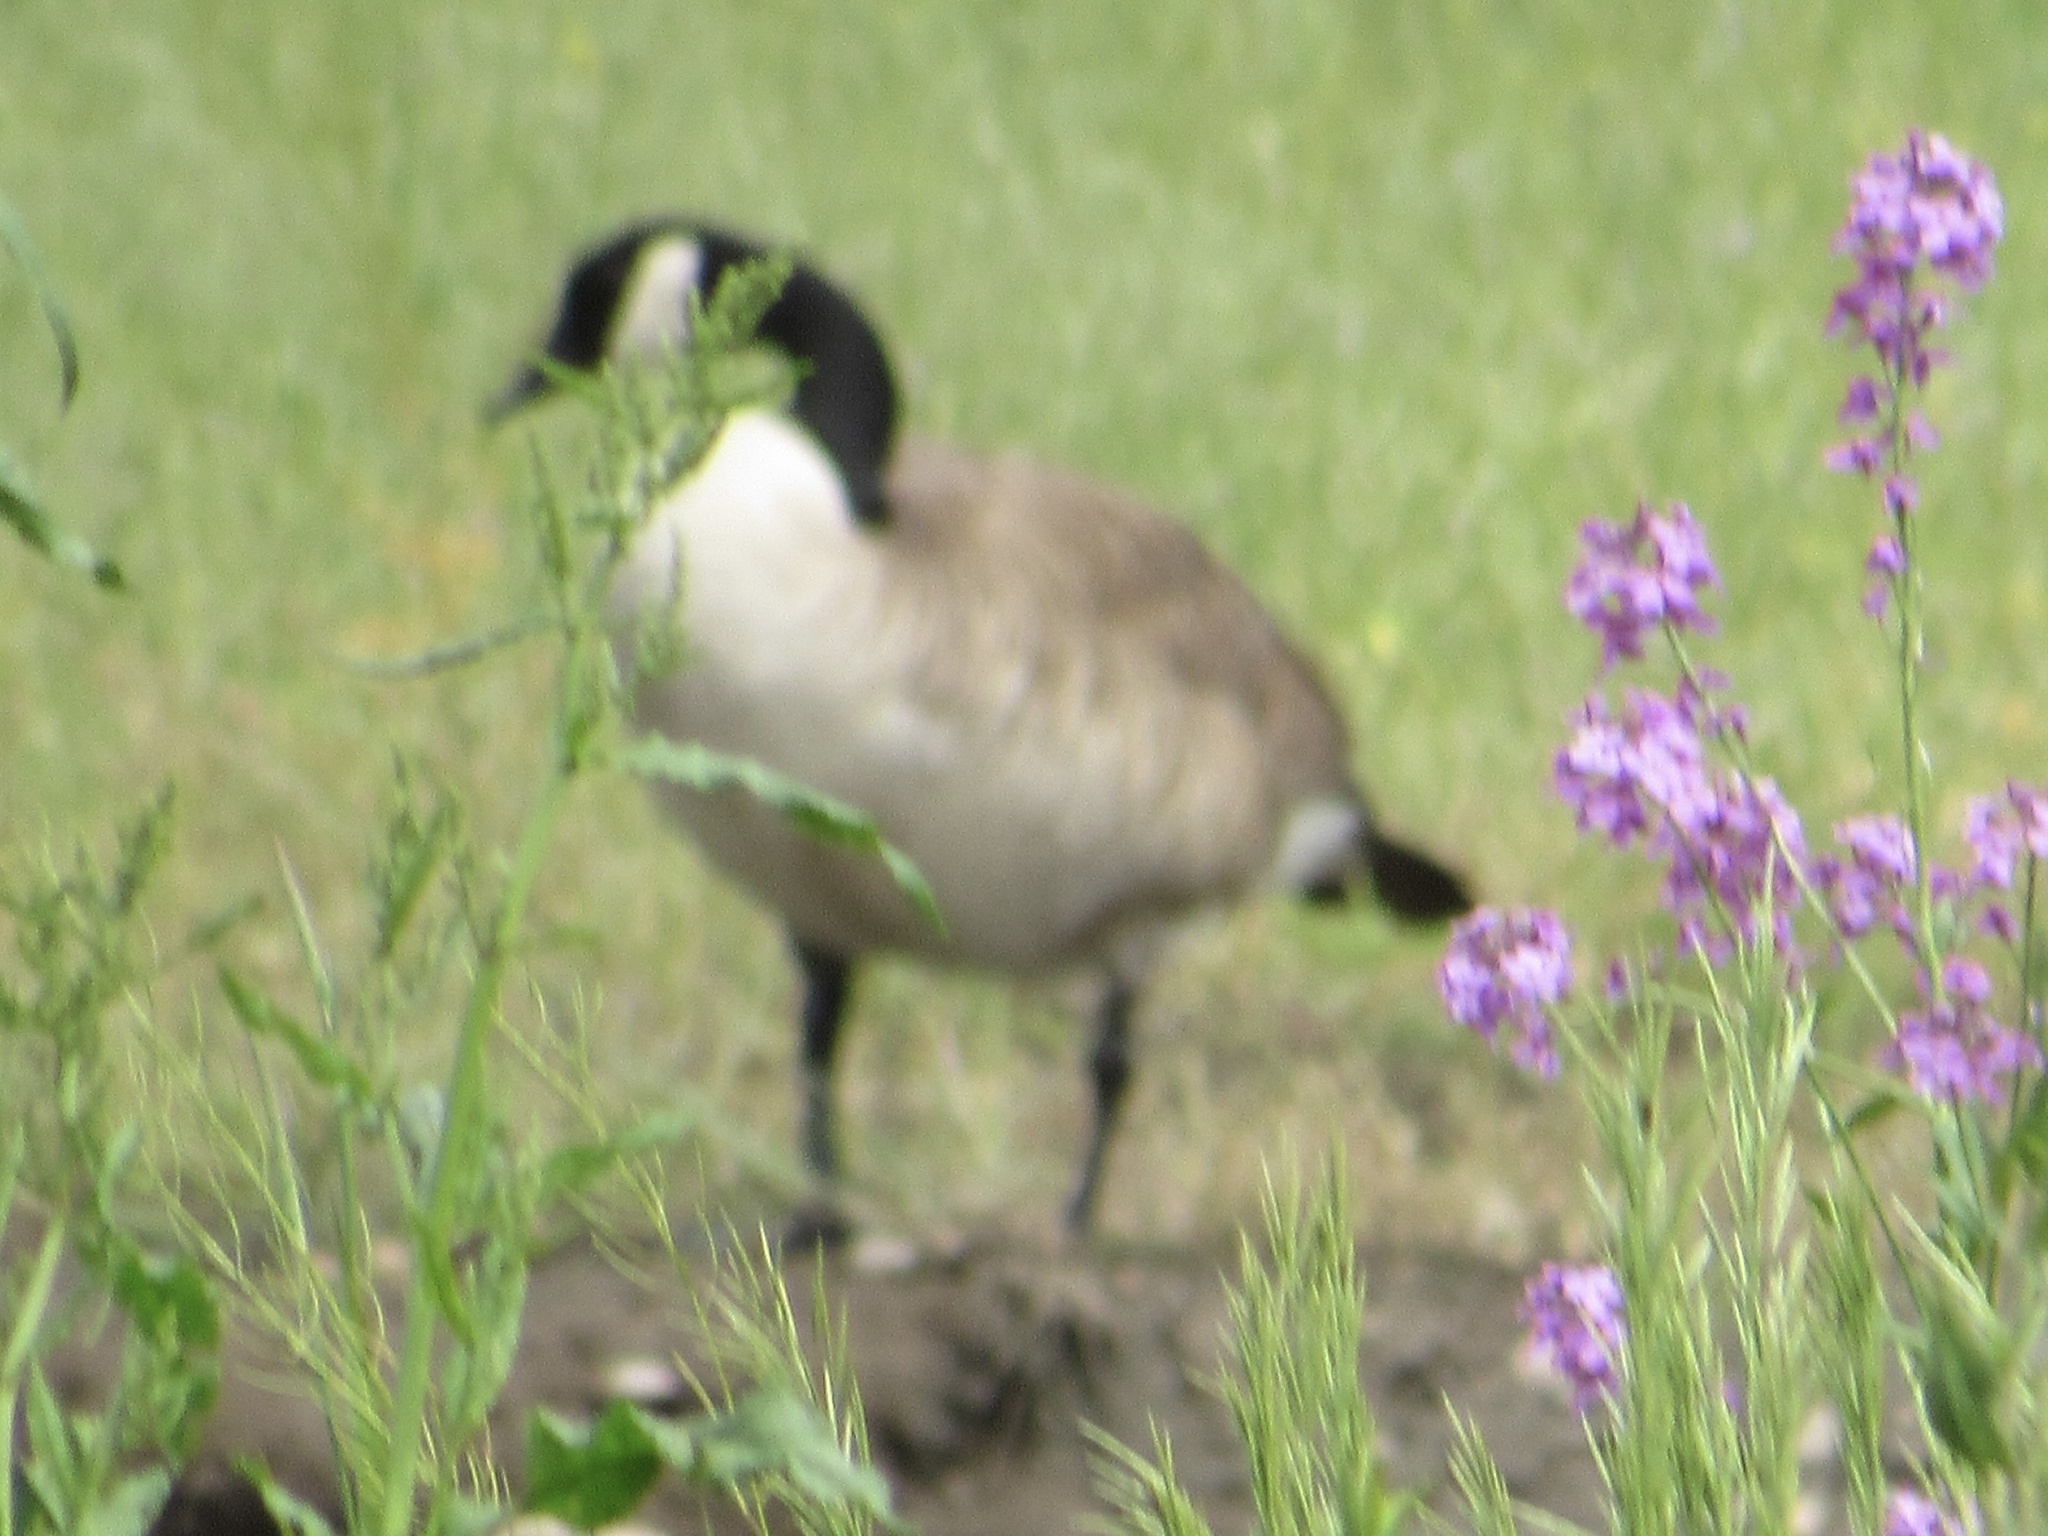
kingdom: Animalia
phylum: Chordata
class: Aves
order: Anseriformes
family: Anatidae
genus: Branta
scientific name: Branta canadensis
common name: Canada goose
